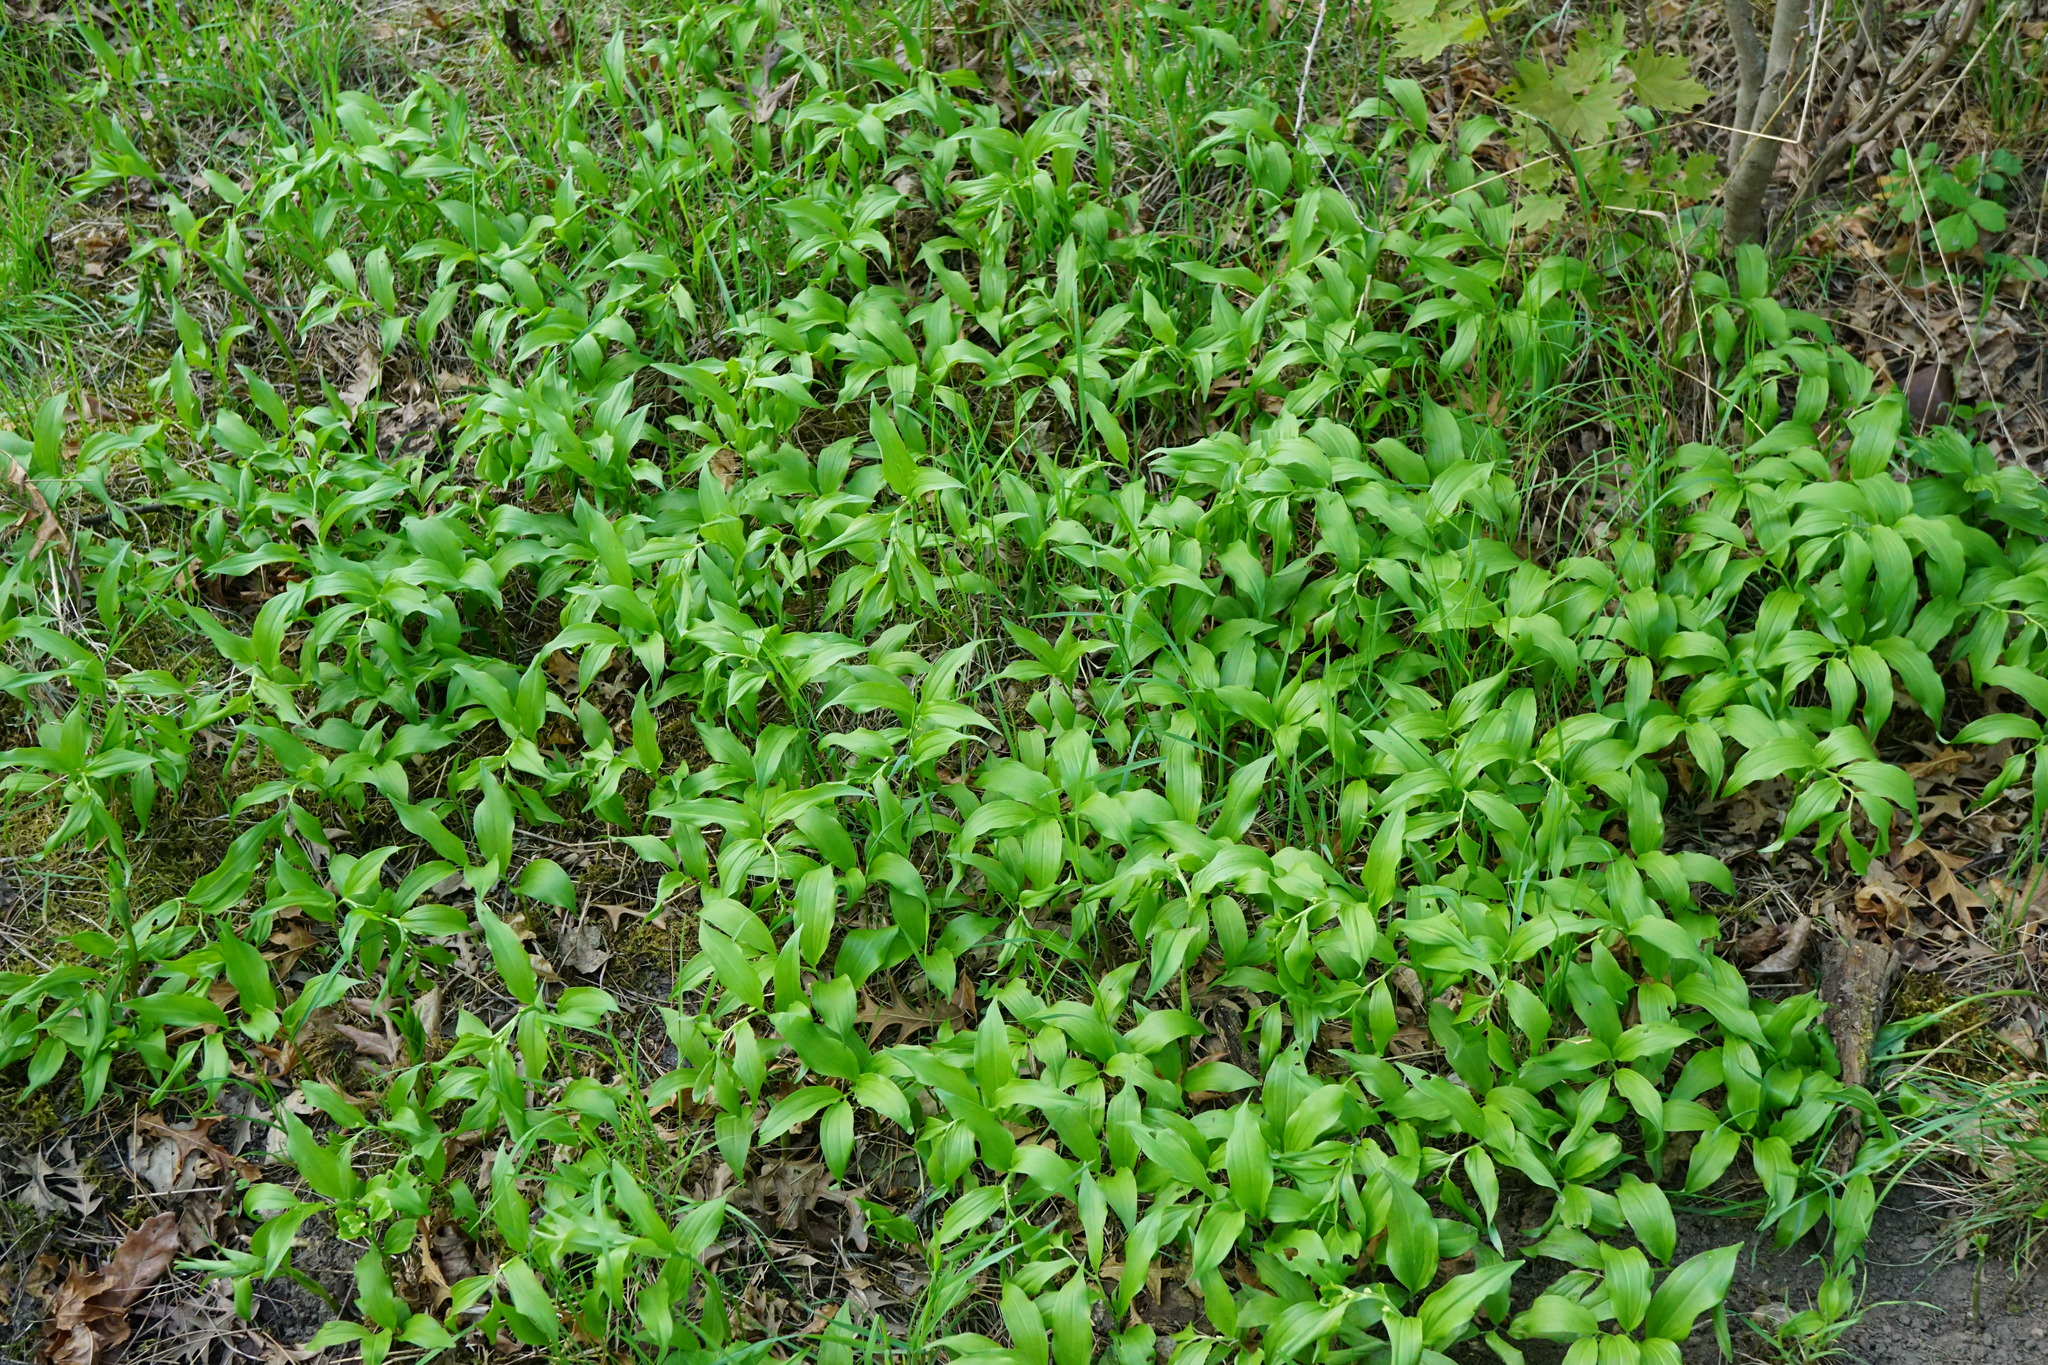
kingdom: Plantae
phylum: Tracheophyta
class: Liliopsida
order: Asparagales
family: Asparagaceae
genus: Polygonatum
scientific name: Polygonatum latifolium
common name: Broadleaf solomon's seal
